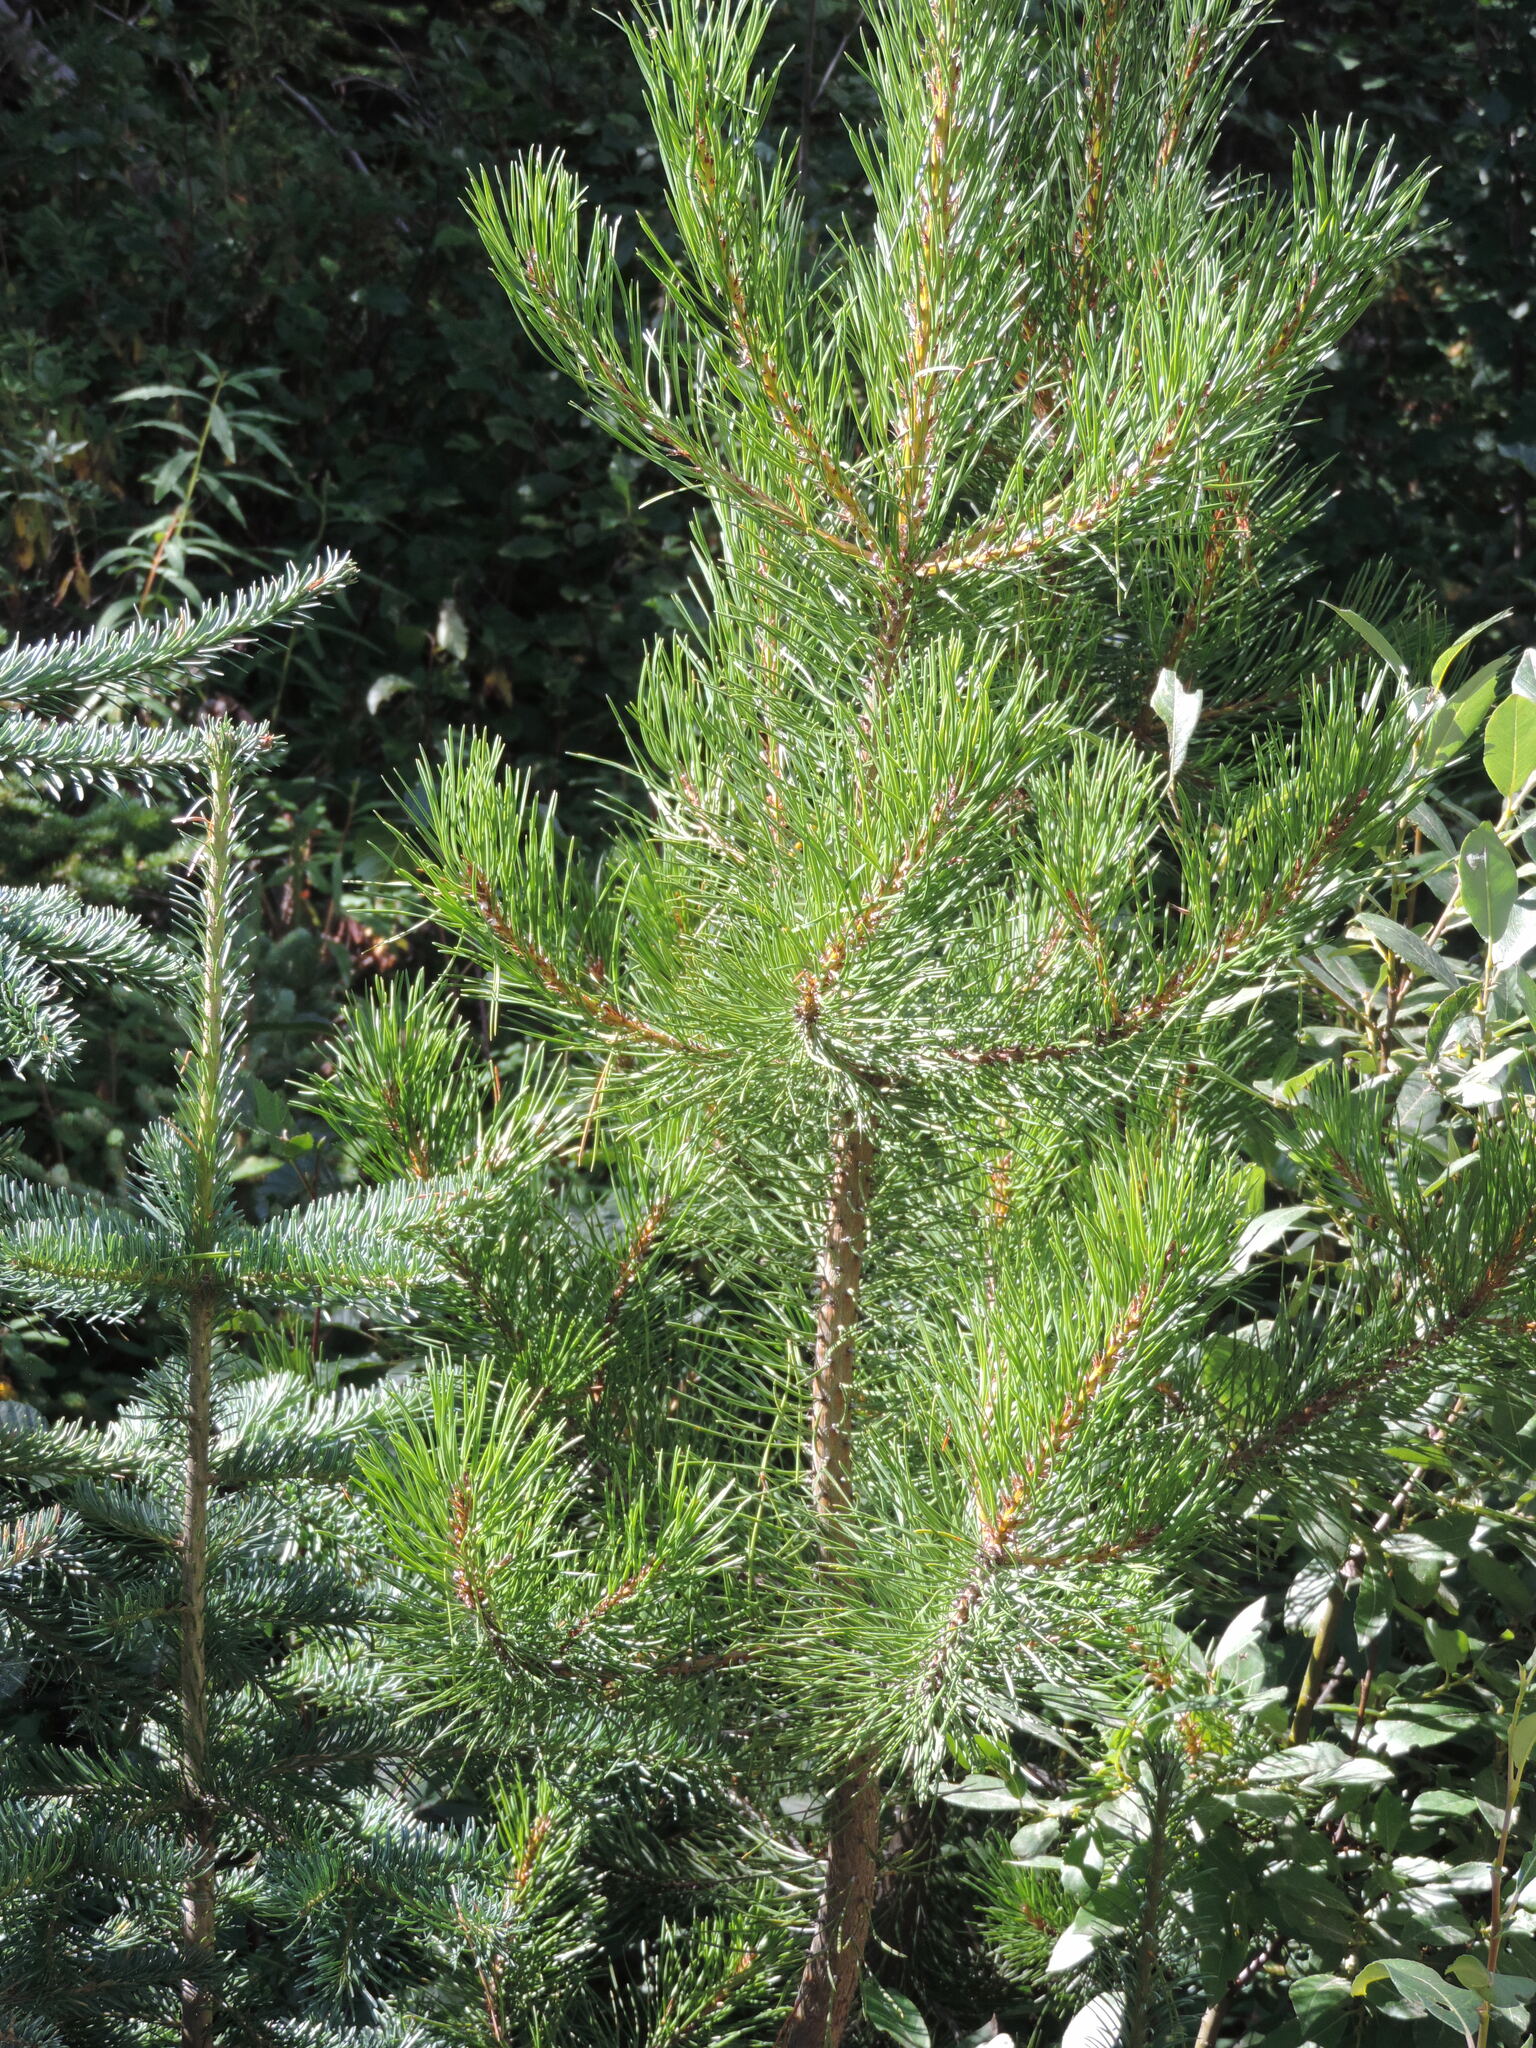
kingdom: Plantae
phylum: Tracheophyta
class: Pinopsida
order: Pinales
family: Pinaceae
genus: Pinus
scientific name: Pinus contorta
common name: Lodgepole pine
